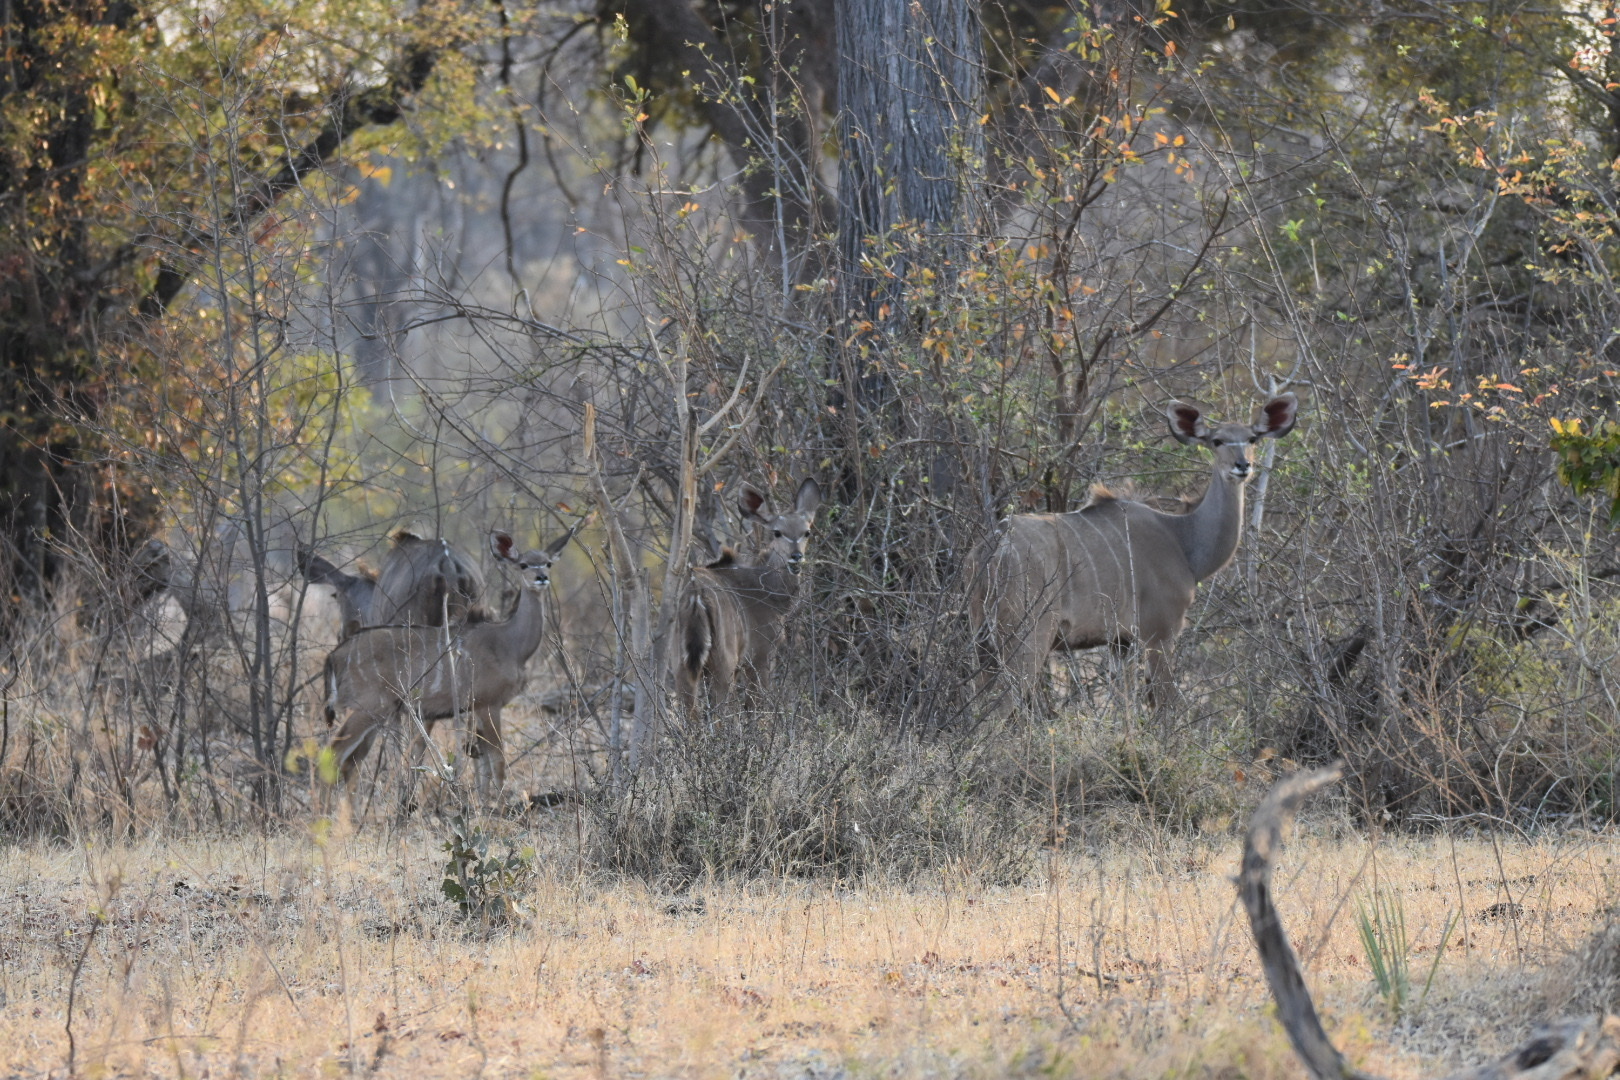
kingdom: Animalia
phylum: Chordata
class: Mammalia
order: Artiodactyla
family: Bovidae
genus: Tragelaphus
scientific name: Tragelaphus strepsiceros
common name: Greater kudu
